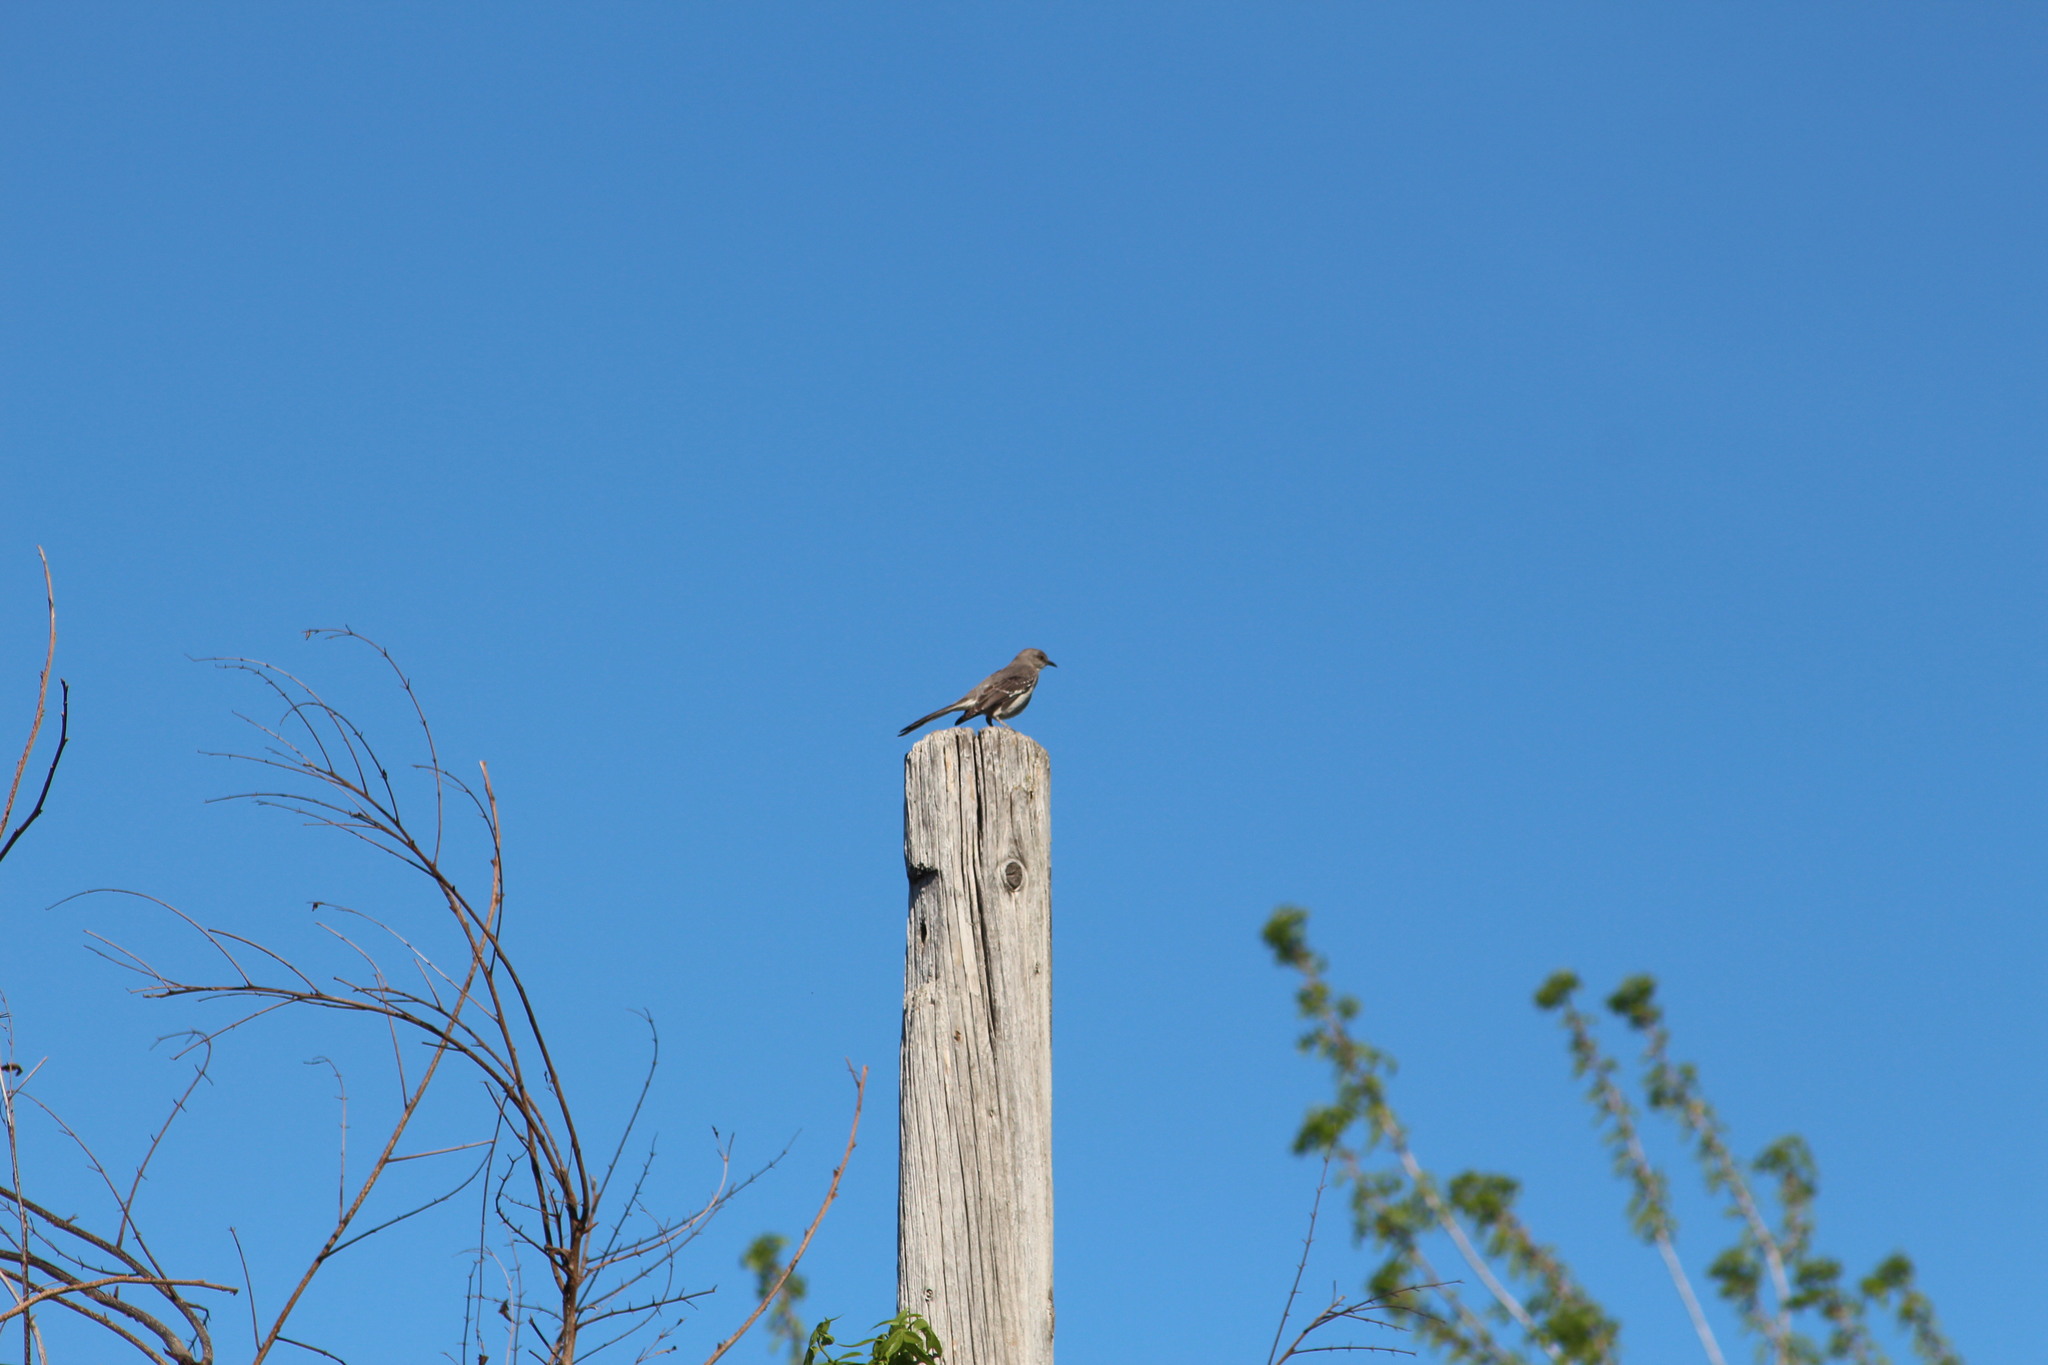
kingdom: Animalia
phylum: Chordata
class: Aves
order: Passeriformes
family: Mimidae
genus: Mimus
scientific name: Mimus polyglottos
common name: Northern mockingbird
